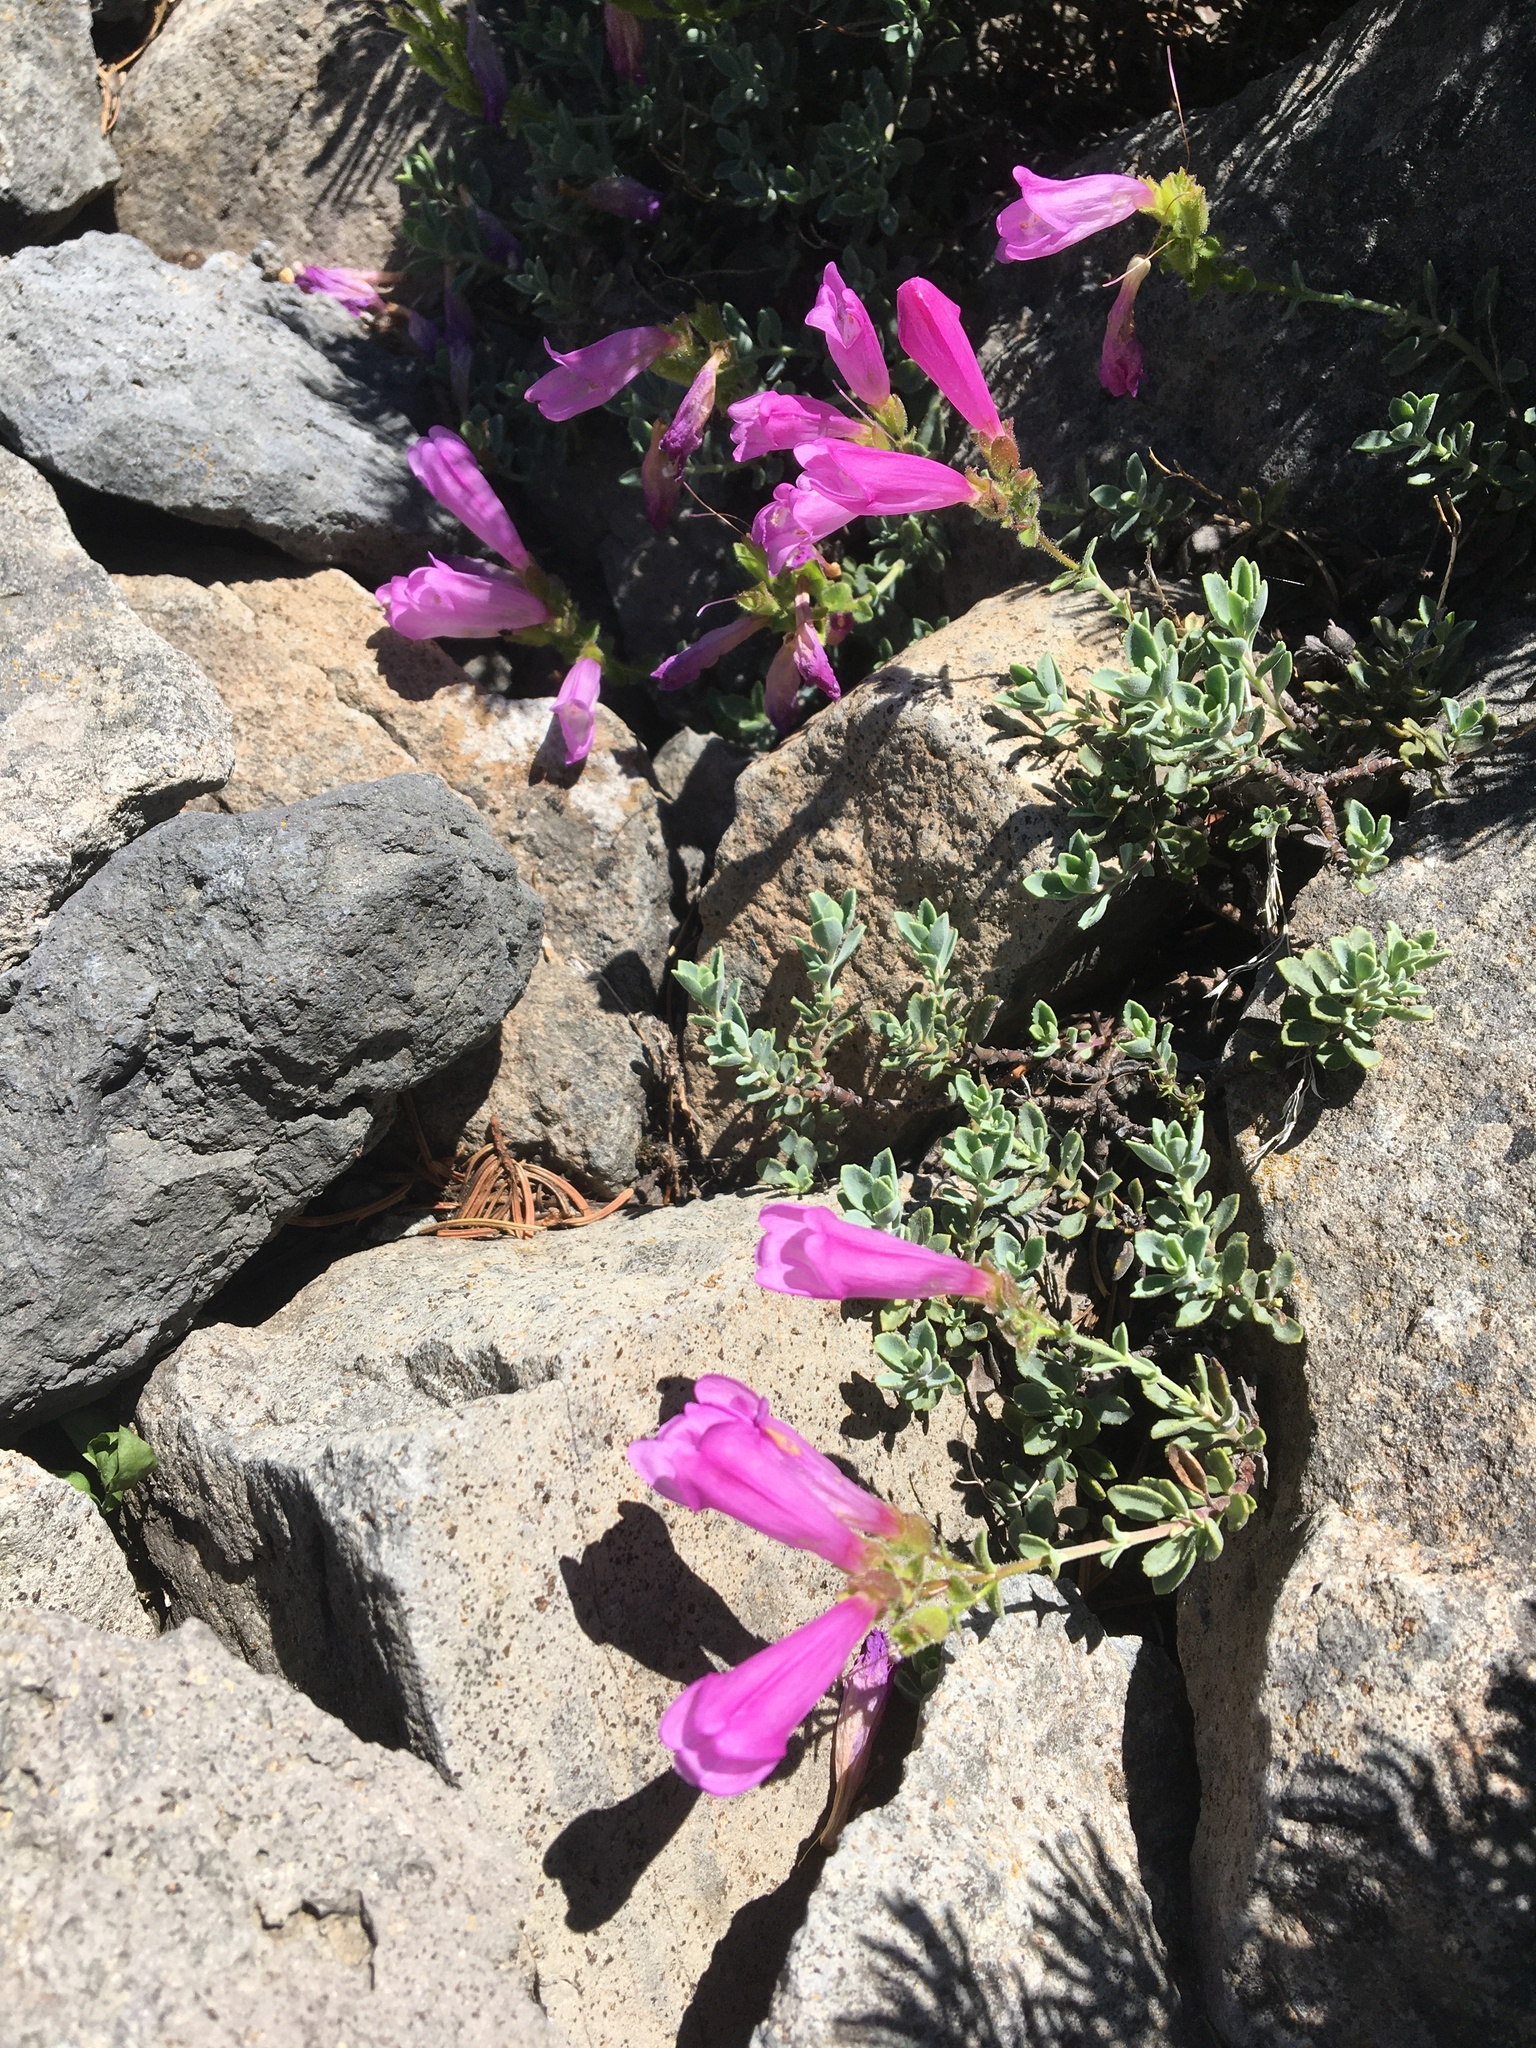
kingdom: Plantae
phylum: Tracheophyta
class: Magnoliopsida
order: Lamiales
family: Plantaginaceae
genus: Penstemon
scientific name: Penstemon davidsonii
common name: Davidson's penstemon
